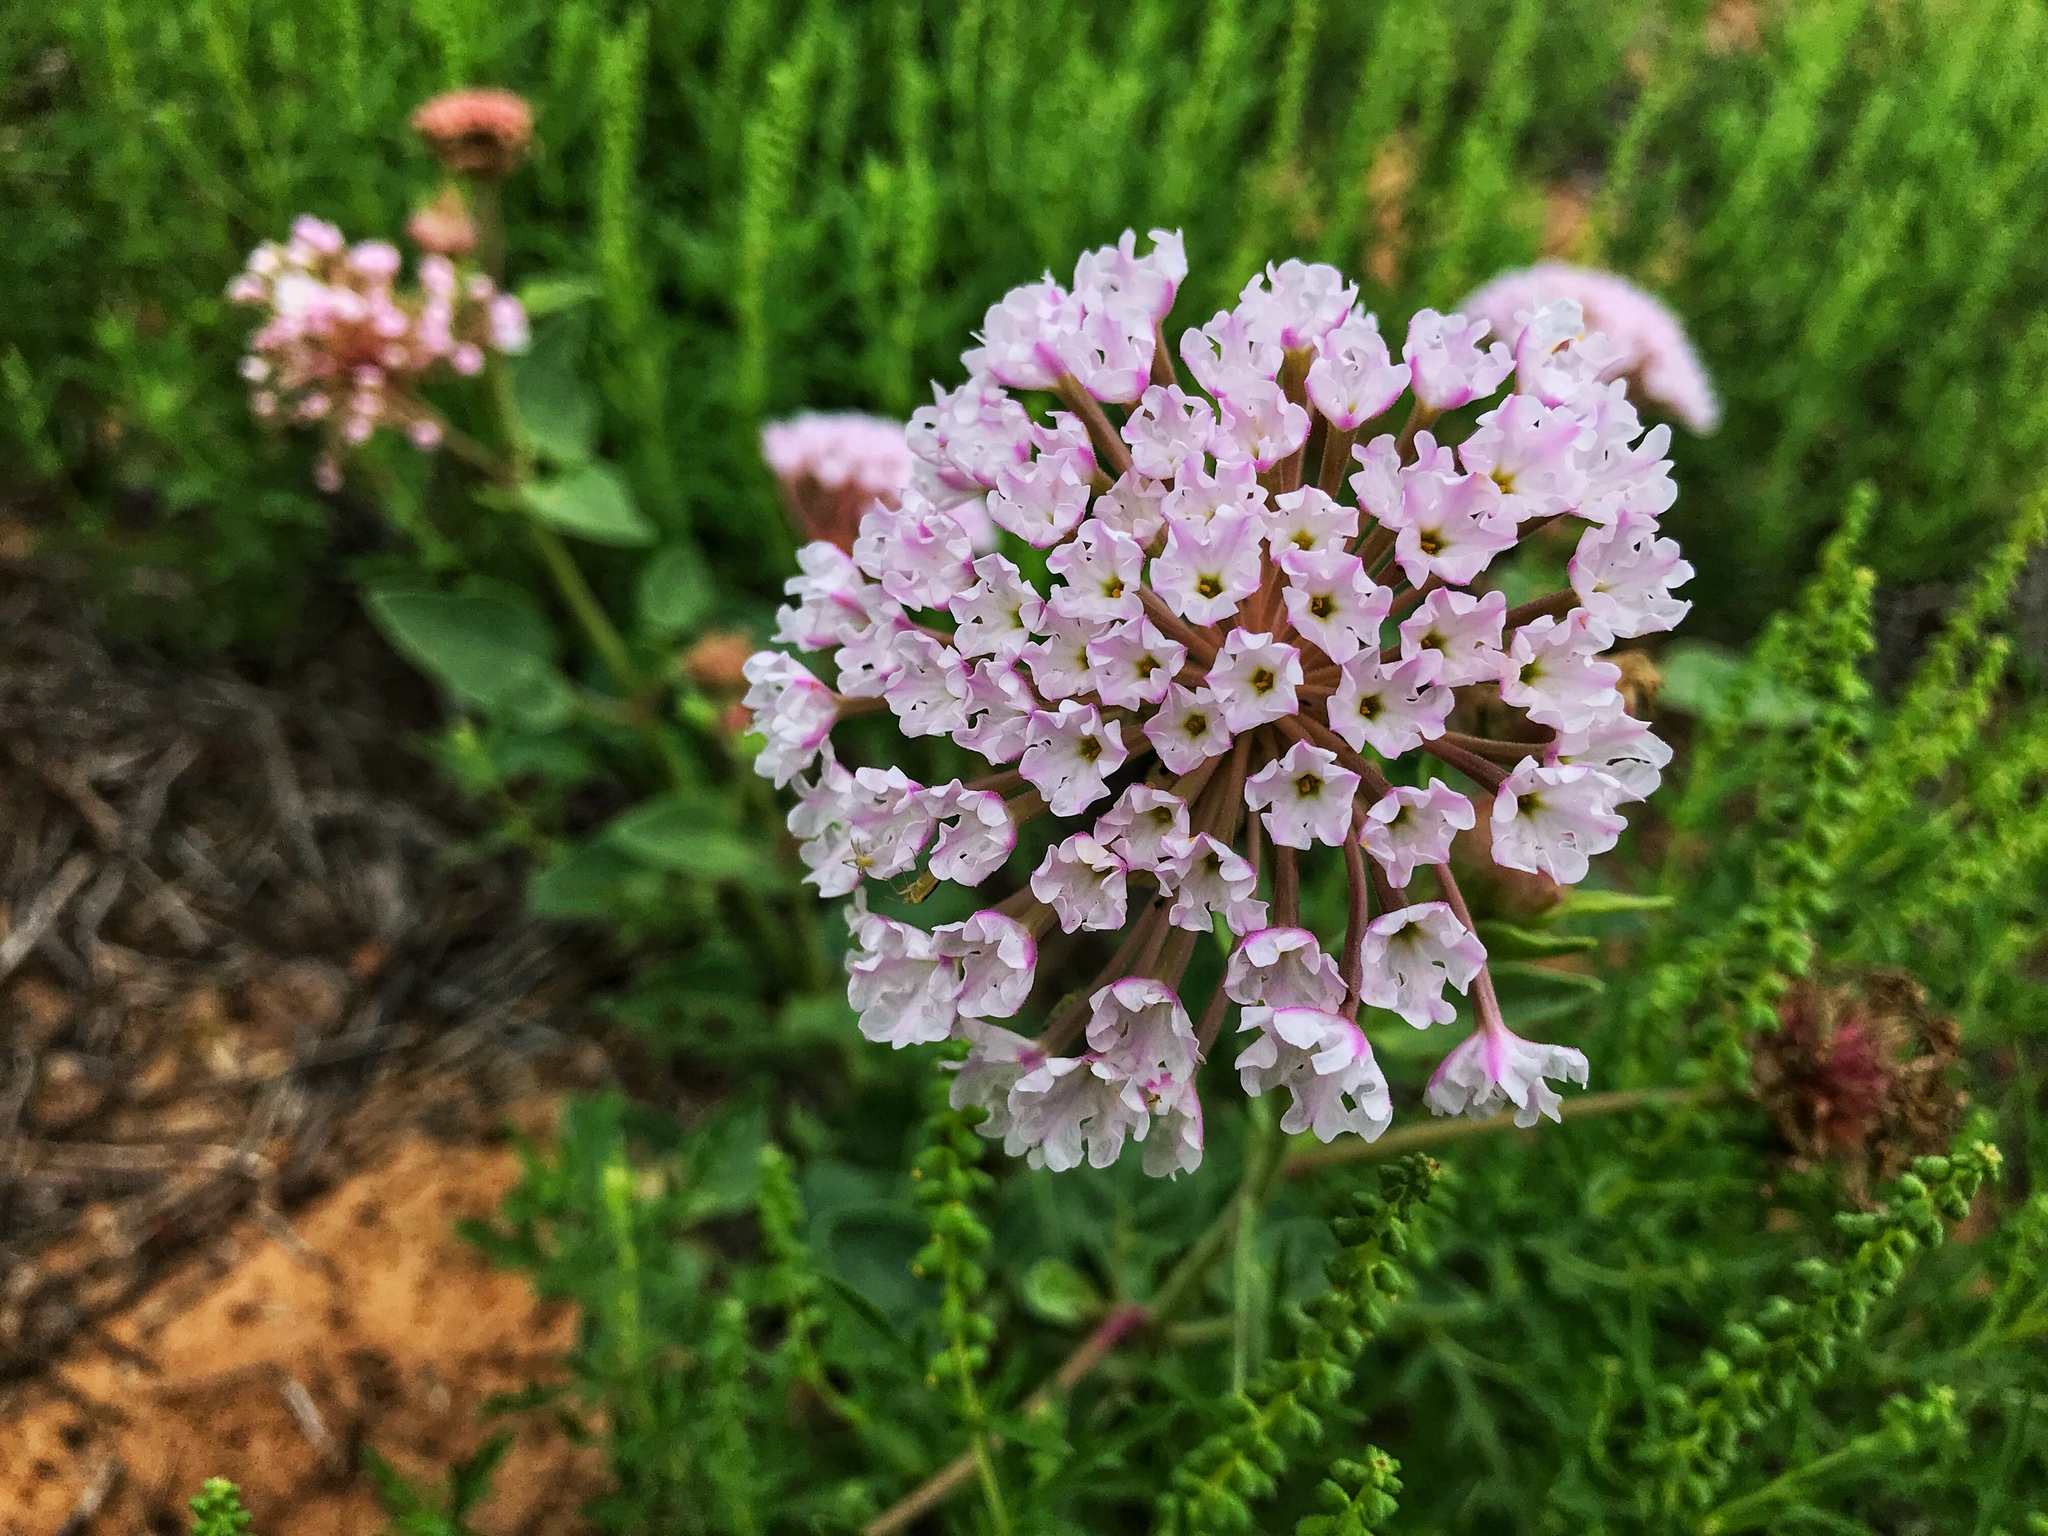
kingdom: Plantae
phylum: Tracheophyta
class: Magnoliopsida
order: Caryophyllales
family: Nyctaginaceae
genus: Abronia
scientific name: Abronia fragrans
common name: Fragrant sand-verbena
